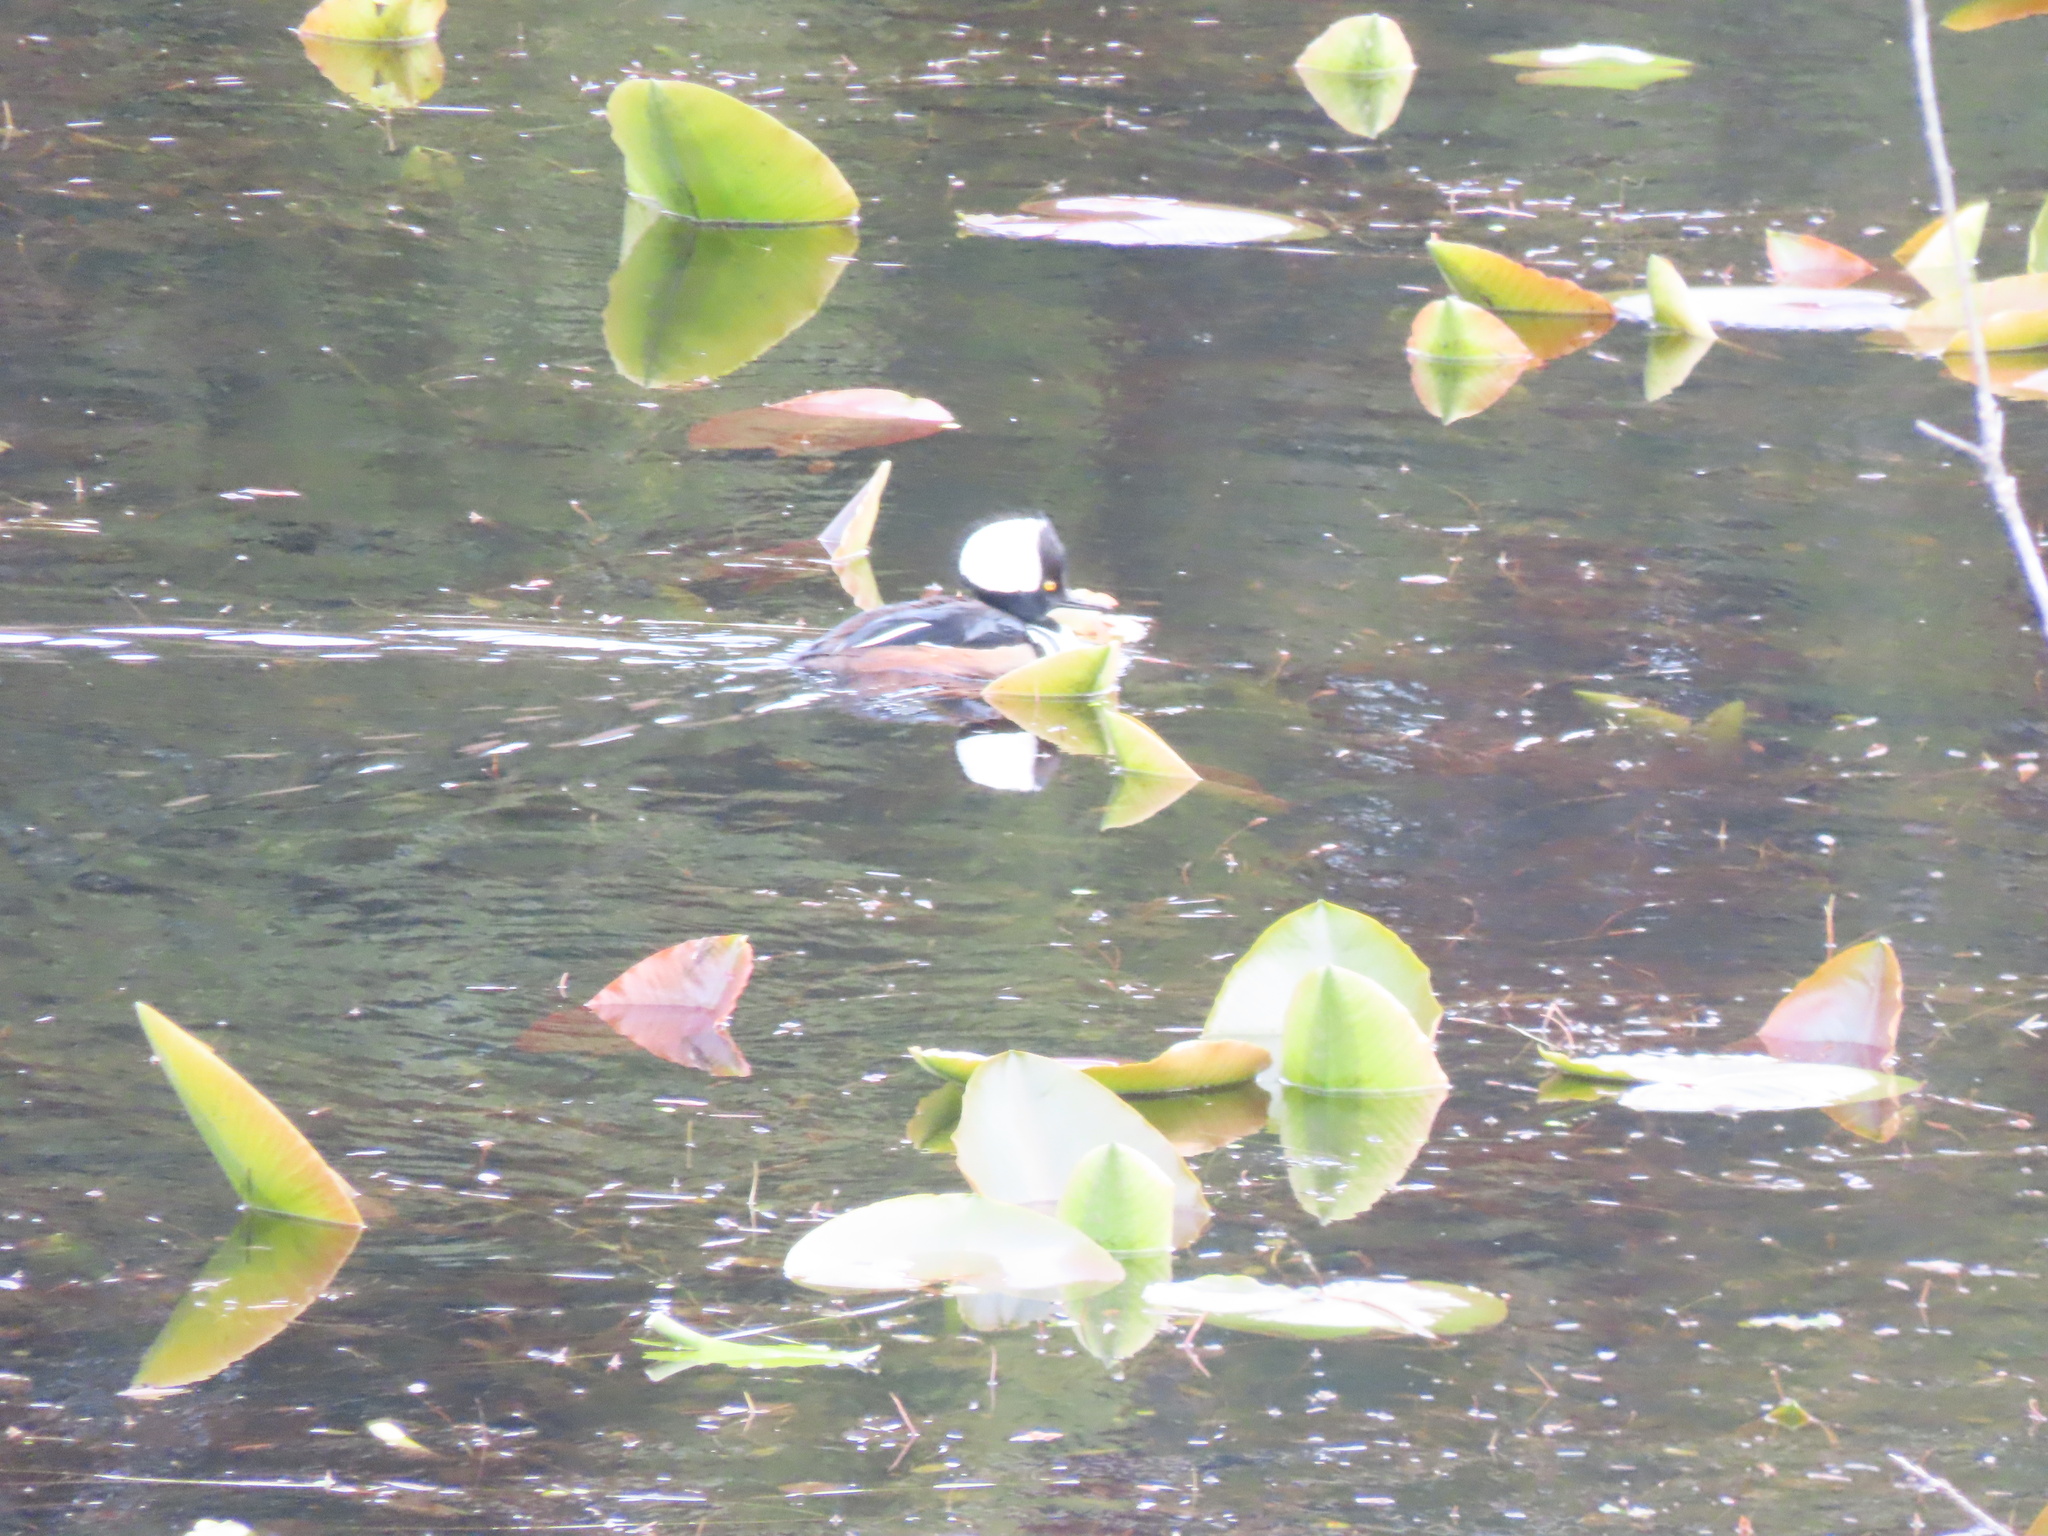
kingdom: Animalia
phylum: Chordata
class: Aves
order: Anseriformes
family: Anatidae
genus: Lophodytes
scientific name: Lophodytes cucullatus
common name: Hooded merganser
